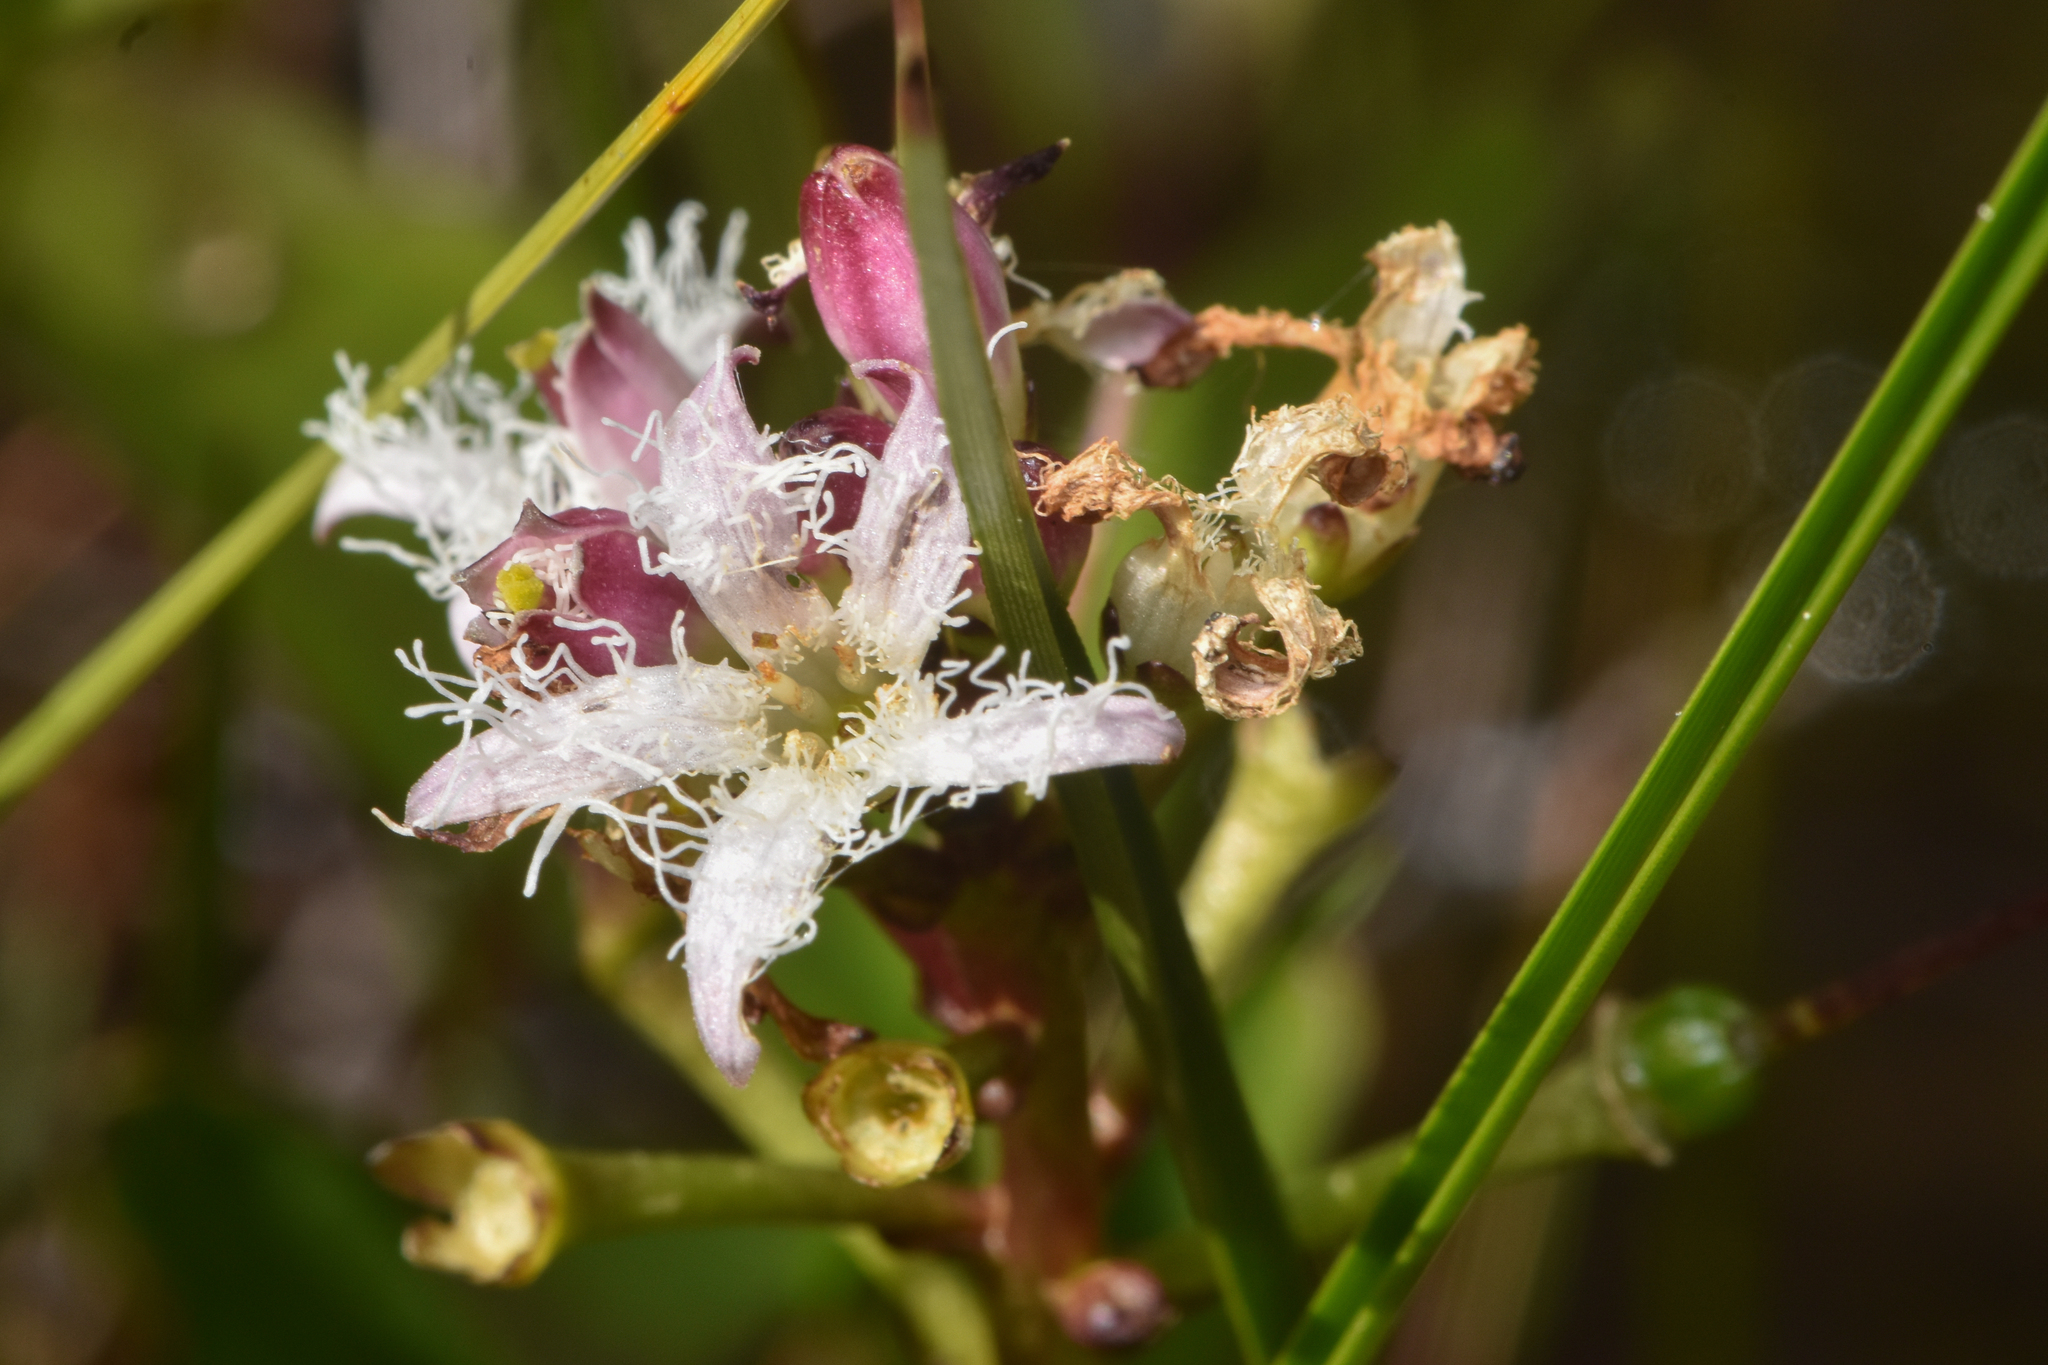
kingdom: Plantae
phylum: Tracheophyta
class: Magnoliopsida
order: Asterales
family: Menyanthaceae
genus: Menyanthes
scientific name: Menyanthes trifoliata
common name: Bogbean
